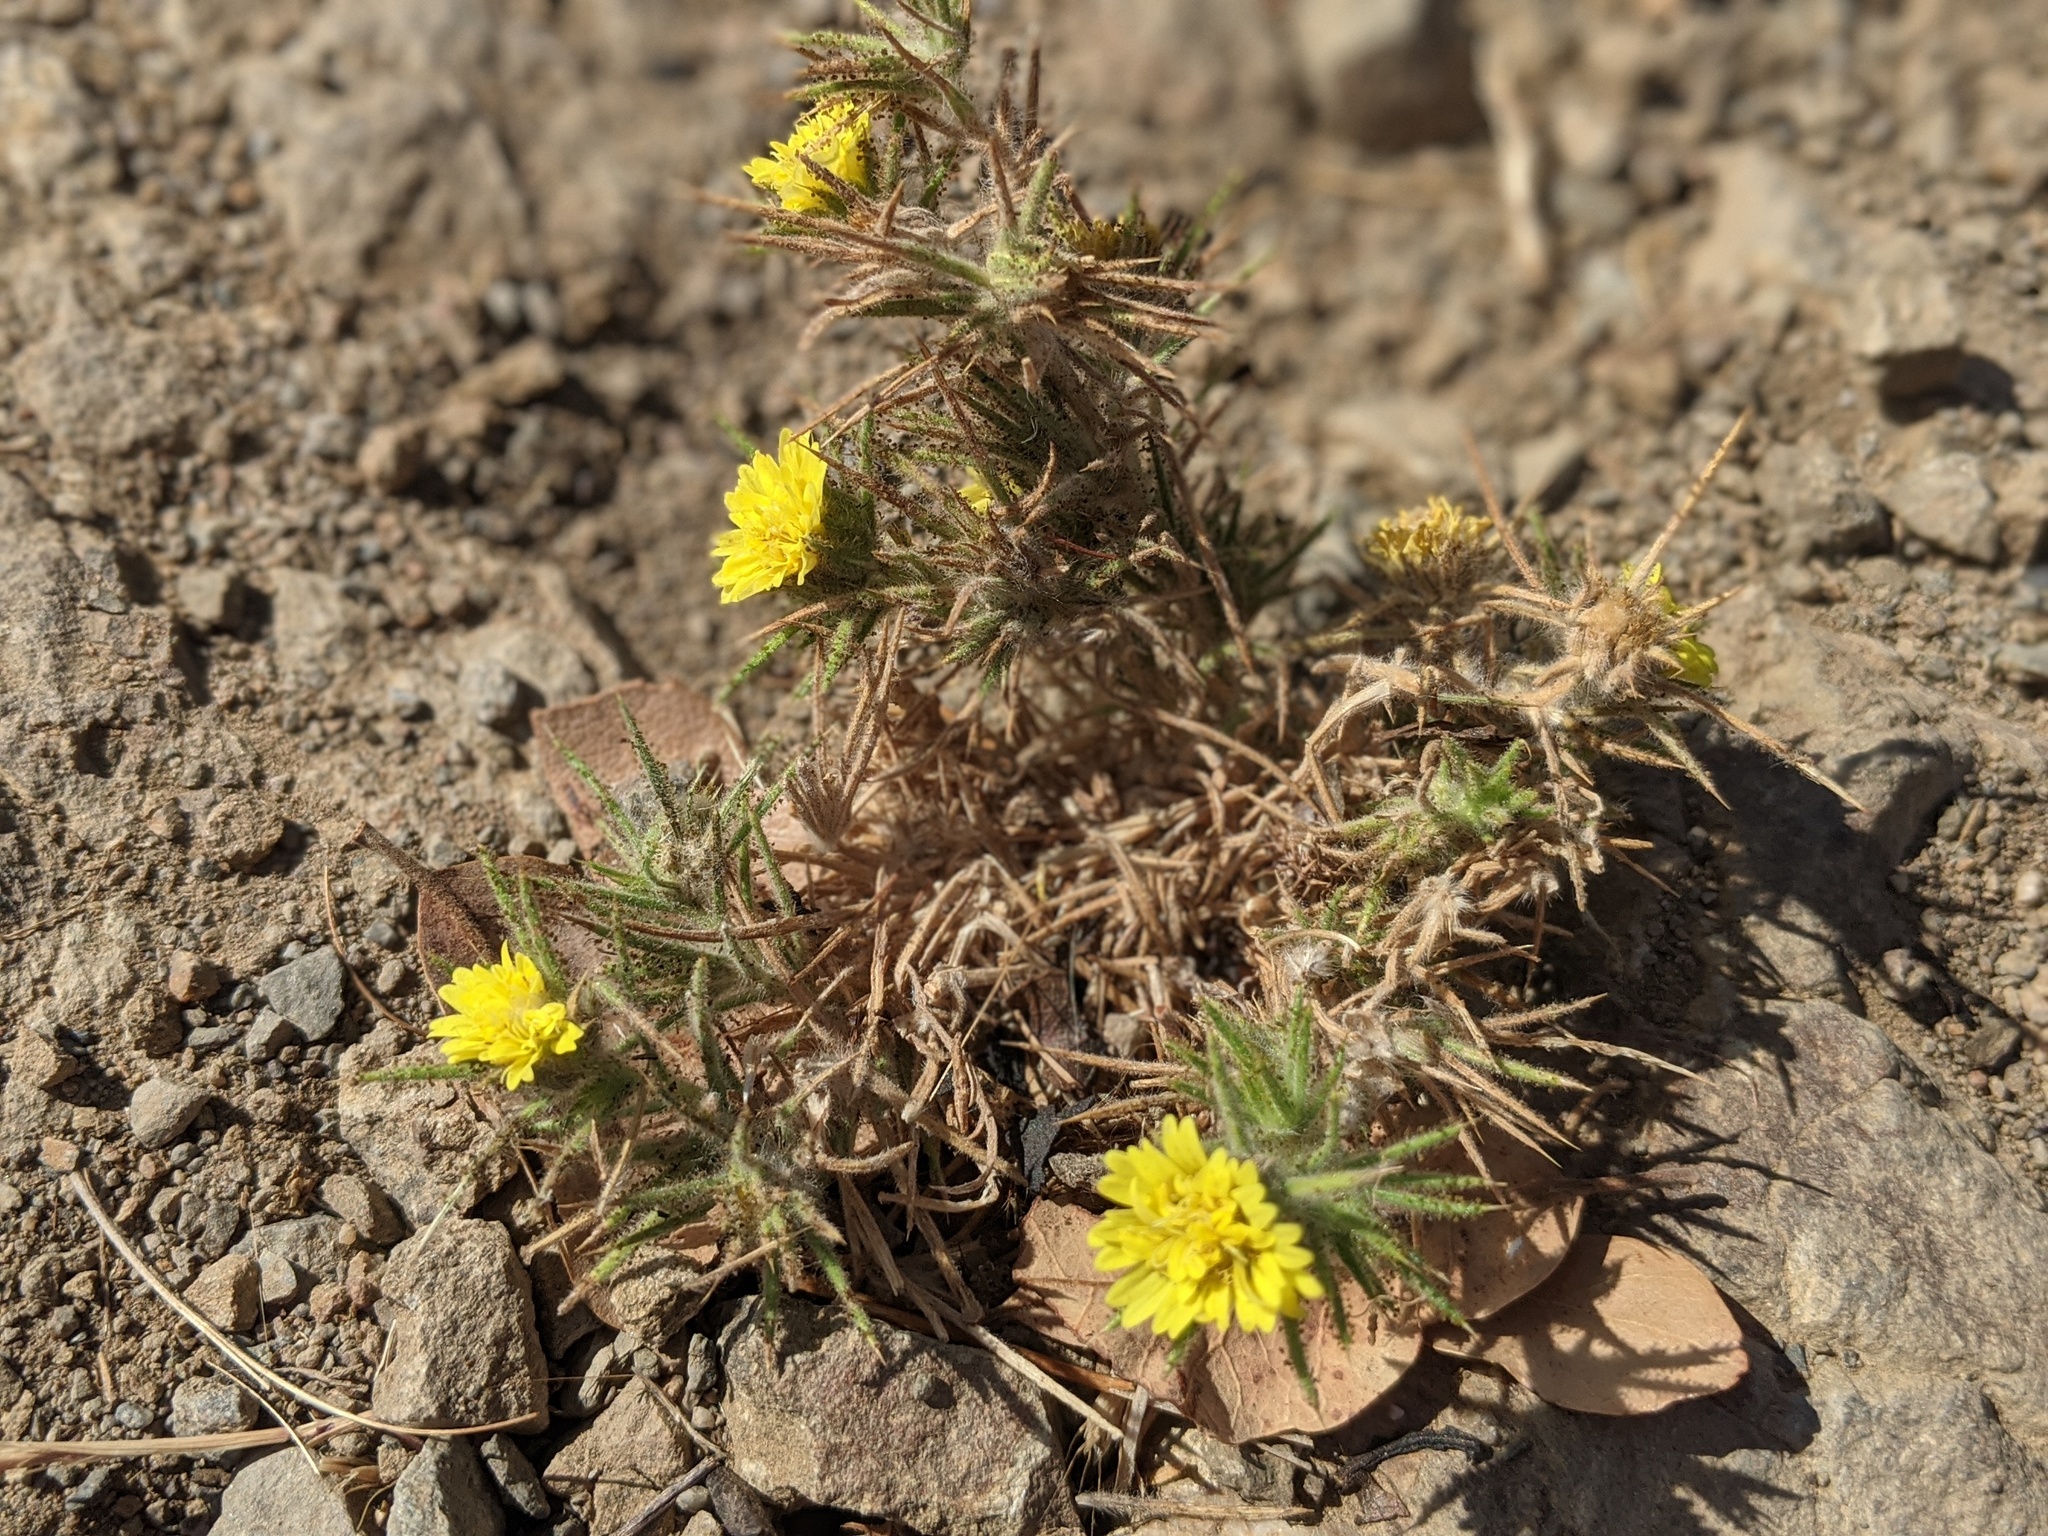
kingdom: Plantae
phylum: Tracheophyta
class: Magnoliopsida
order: Asterales
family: Asteraceae
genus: Centromadia
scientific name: Centromadia fitchii
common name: Fitch's spikeweed
